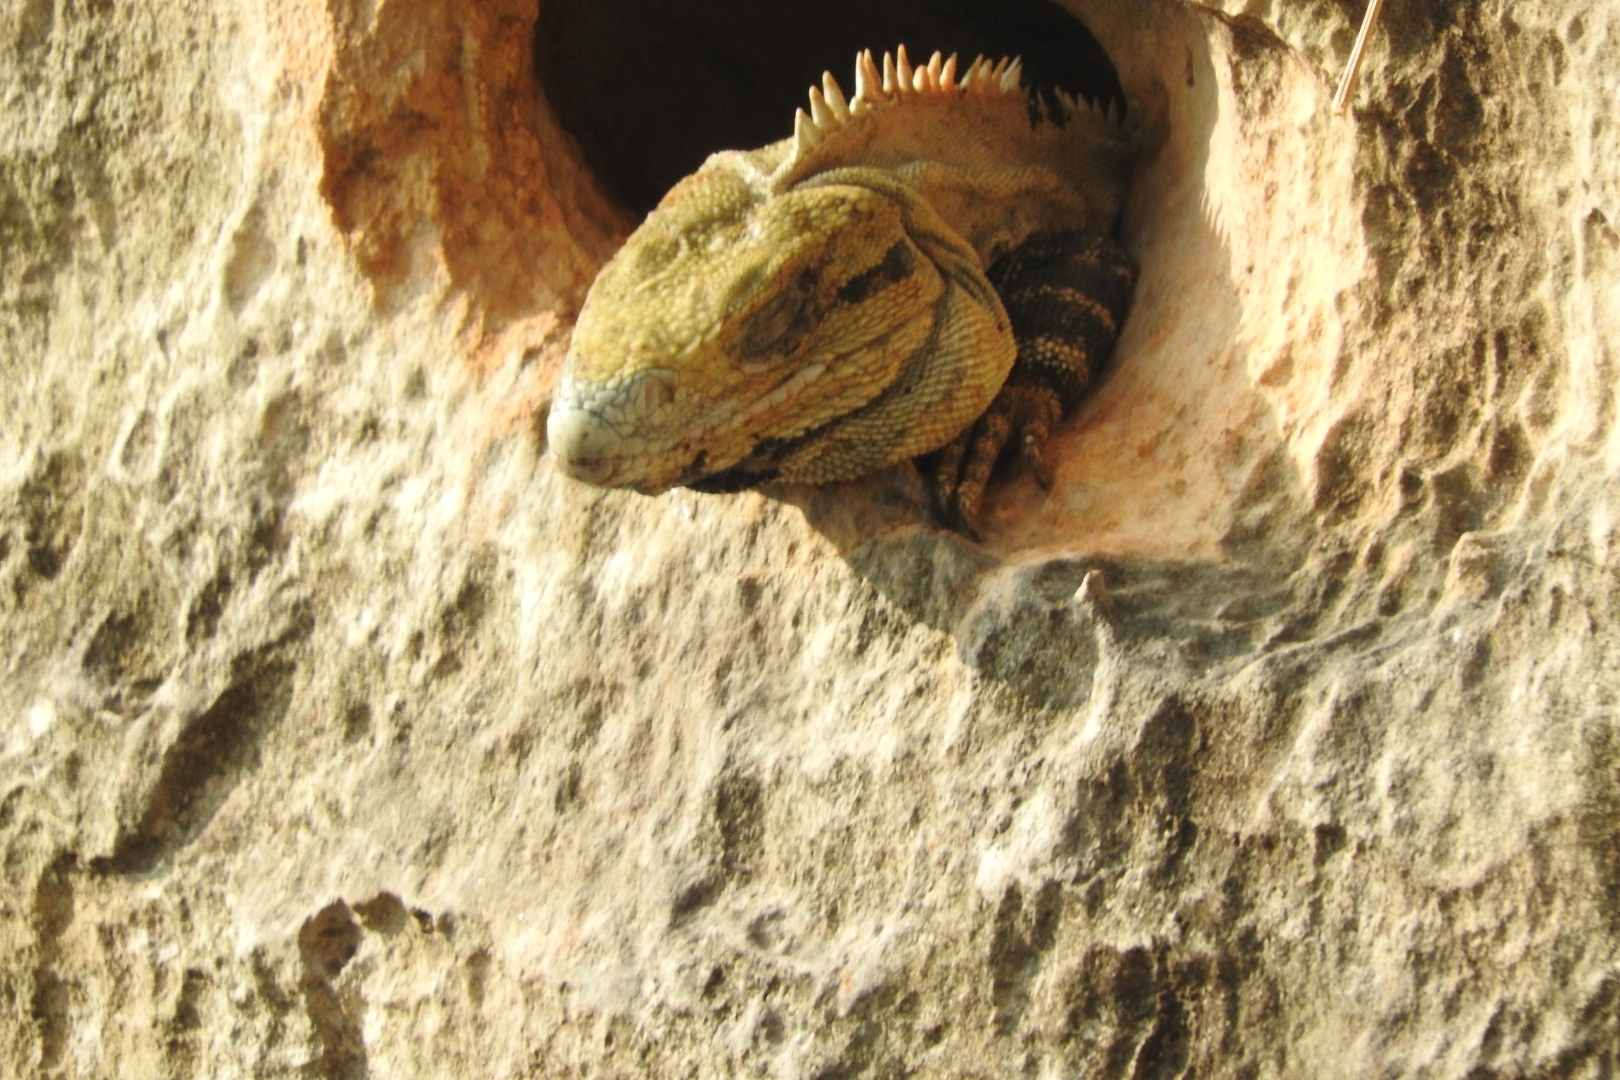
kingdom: Animalia
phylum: Chordata
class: Squamata
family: Iguanidae
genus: Ctenosaura
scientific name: Ctenosaura similis
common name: Black spiny-tailed iguana
